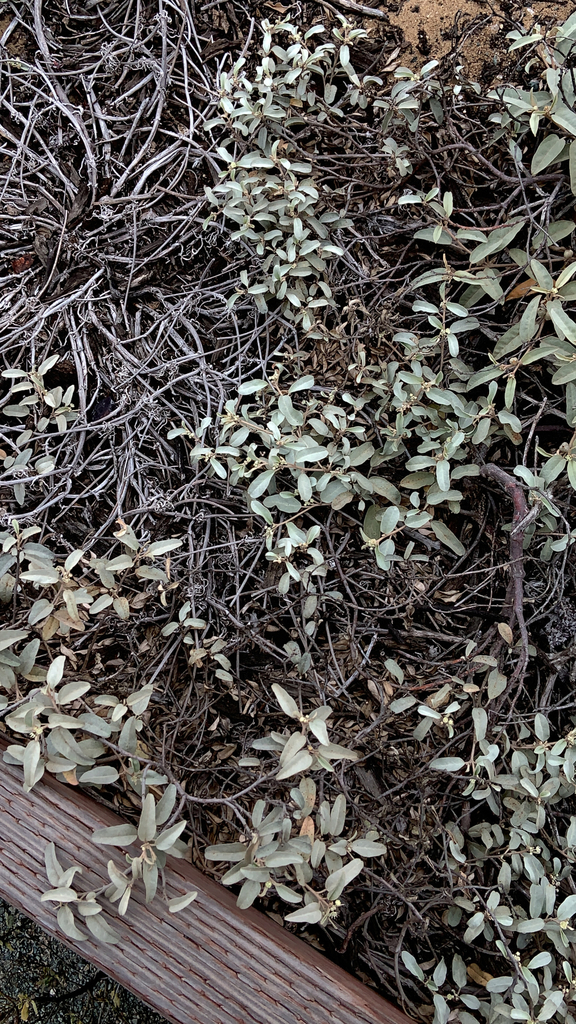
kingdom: Plantae
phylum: Tracheophyta
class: Magnoliopsida
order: Malpighiales
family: Euphorbiaceae
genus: Croton
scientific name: Croton californicus
